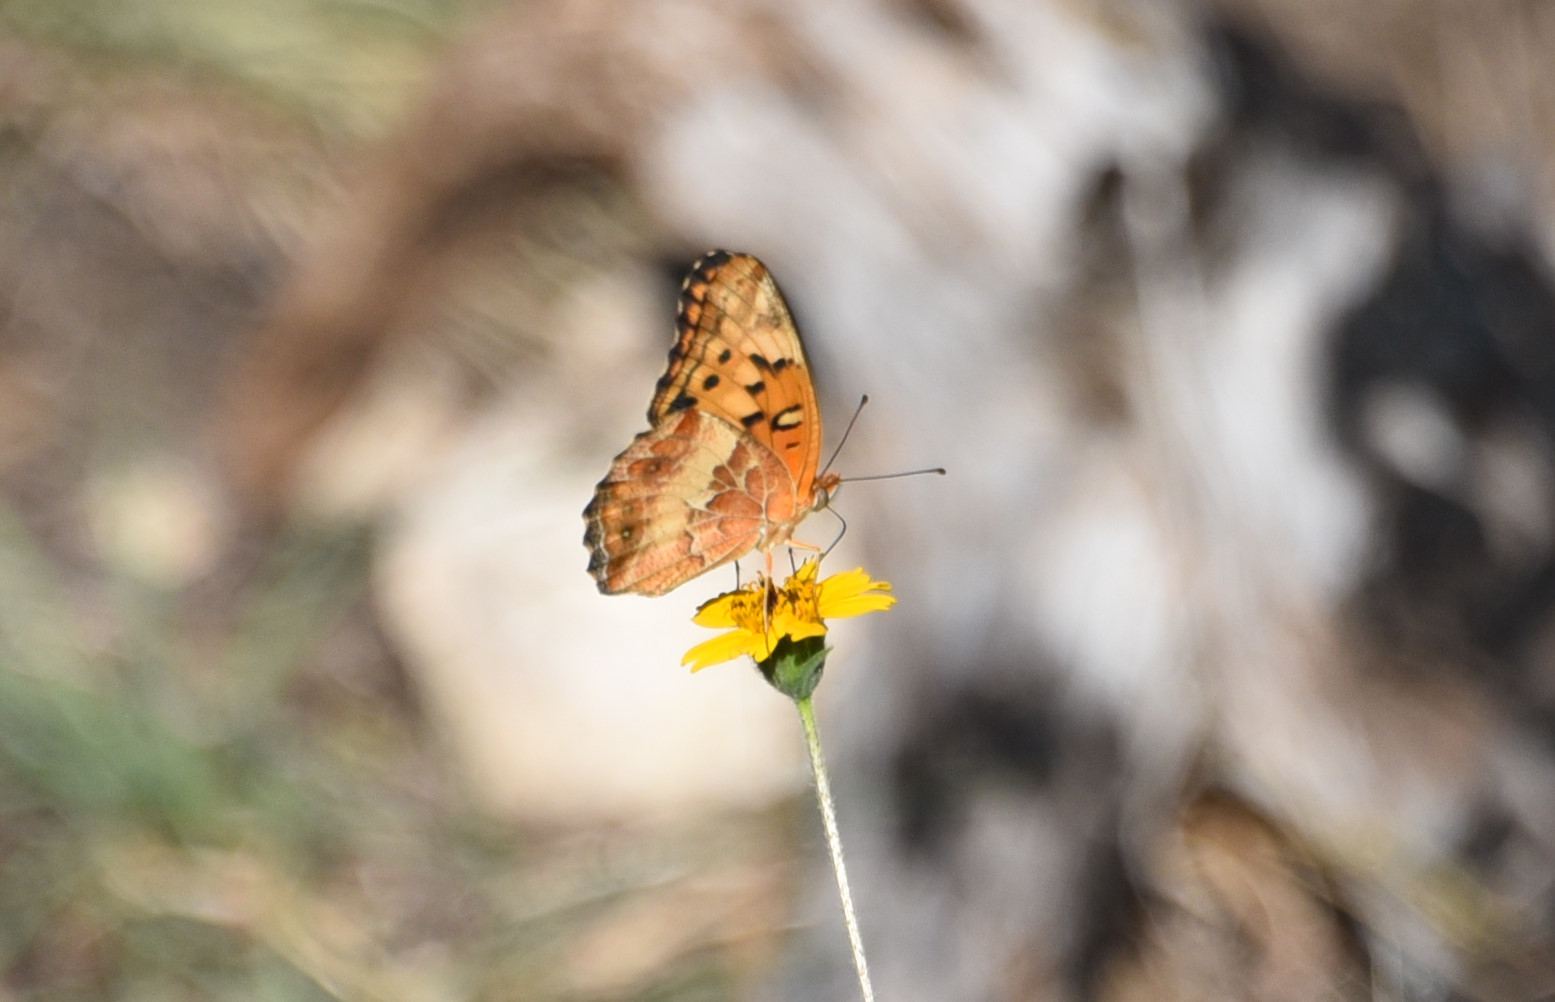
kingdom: Animalia
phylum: Arthropoda
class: Insecta
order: Lepidoptera
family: Nymphalidae
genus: Euptoieta
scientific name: Euptoieta claudia
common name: Variegated fritillary
